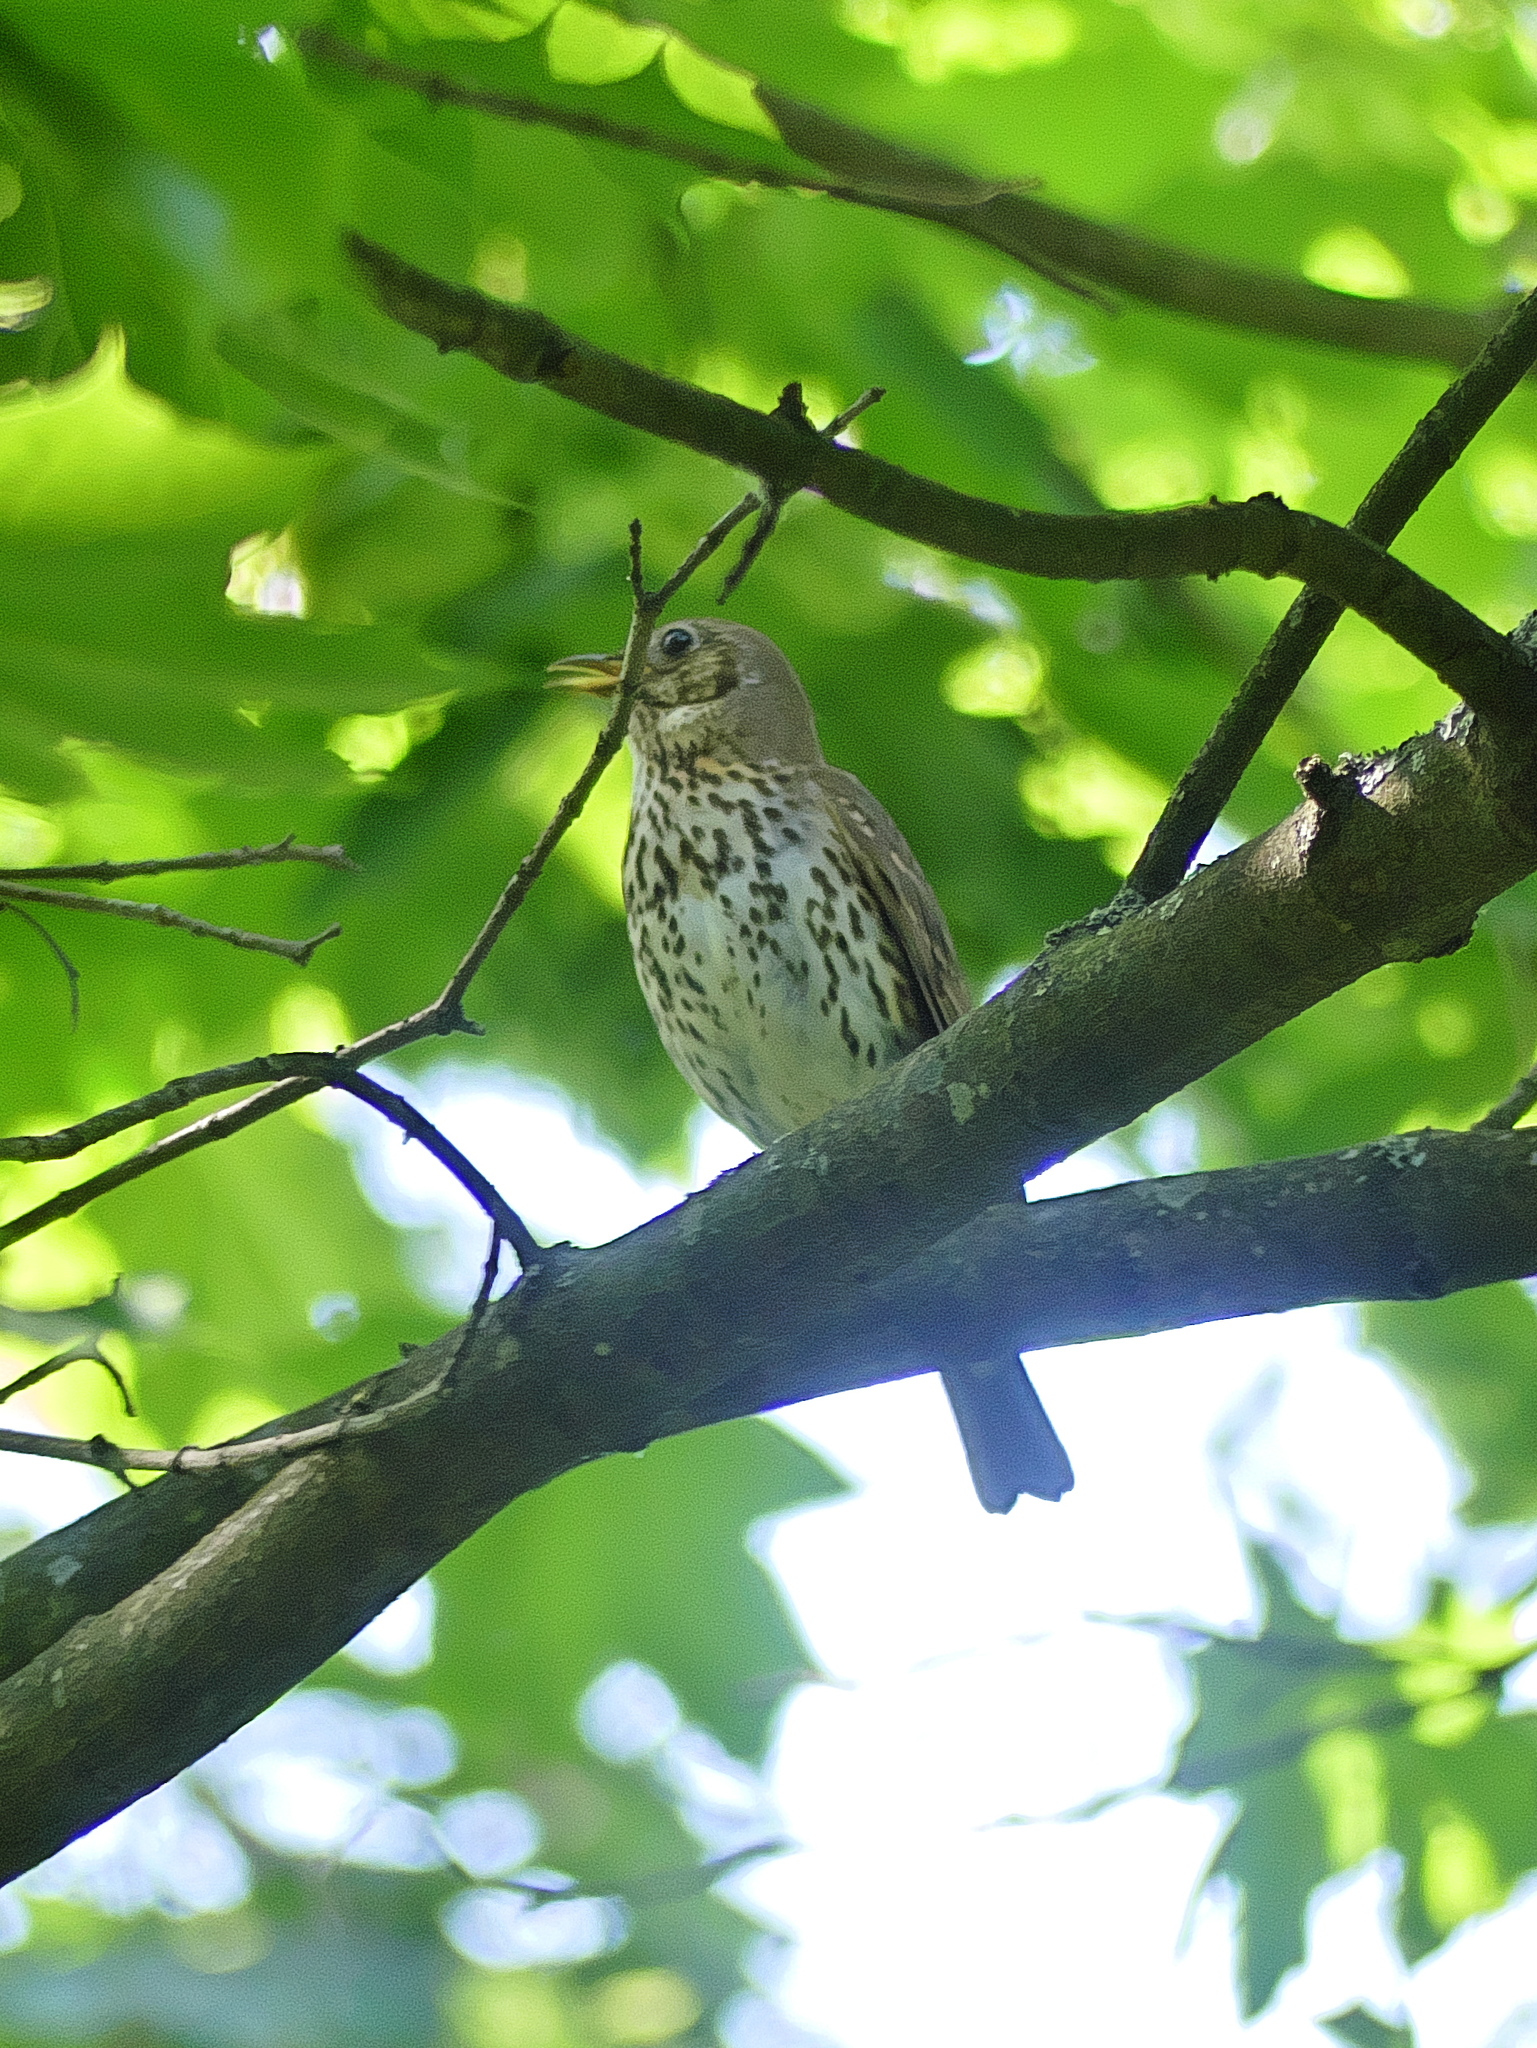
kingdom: Animalia
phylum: Chordata
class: Aves
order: Passeriformes
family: Turdidae
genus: Turdus
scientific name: Turdus philomelos
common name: Song thrush
